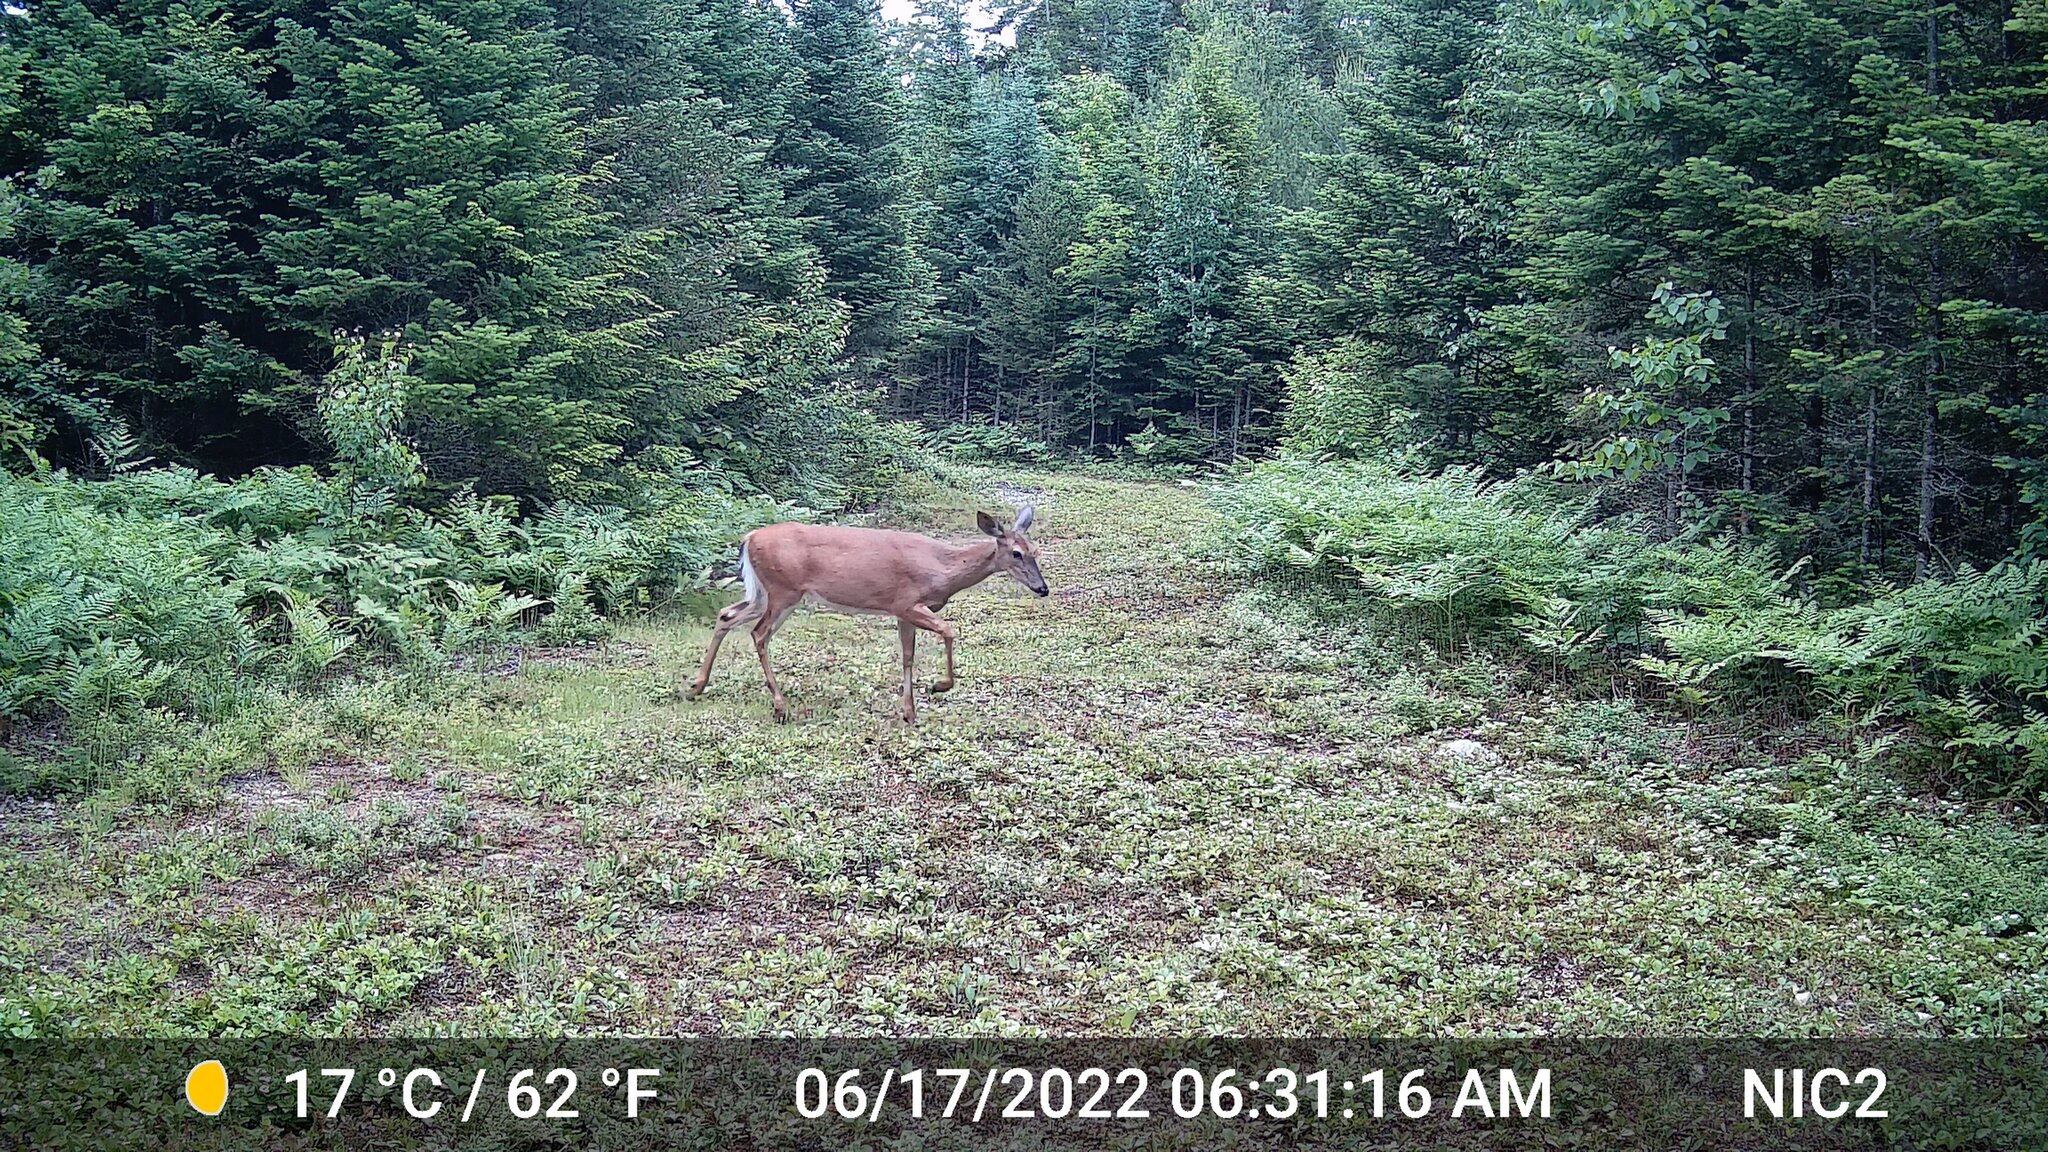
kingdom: Animalia
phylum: Chordata
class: Mammalia
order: Artiodactyla
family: Cervidae
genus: Odocoileus
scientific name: Odocoileus virginianus
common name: White-tailed deer
